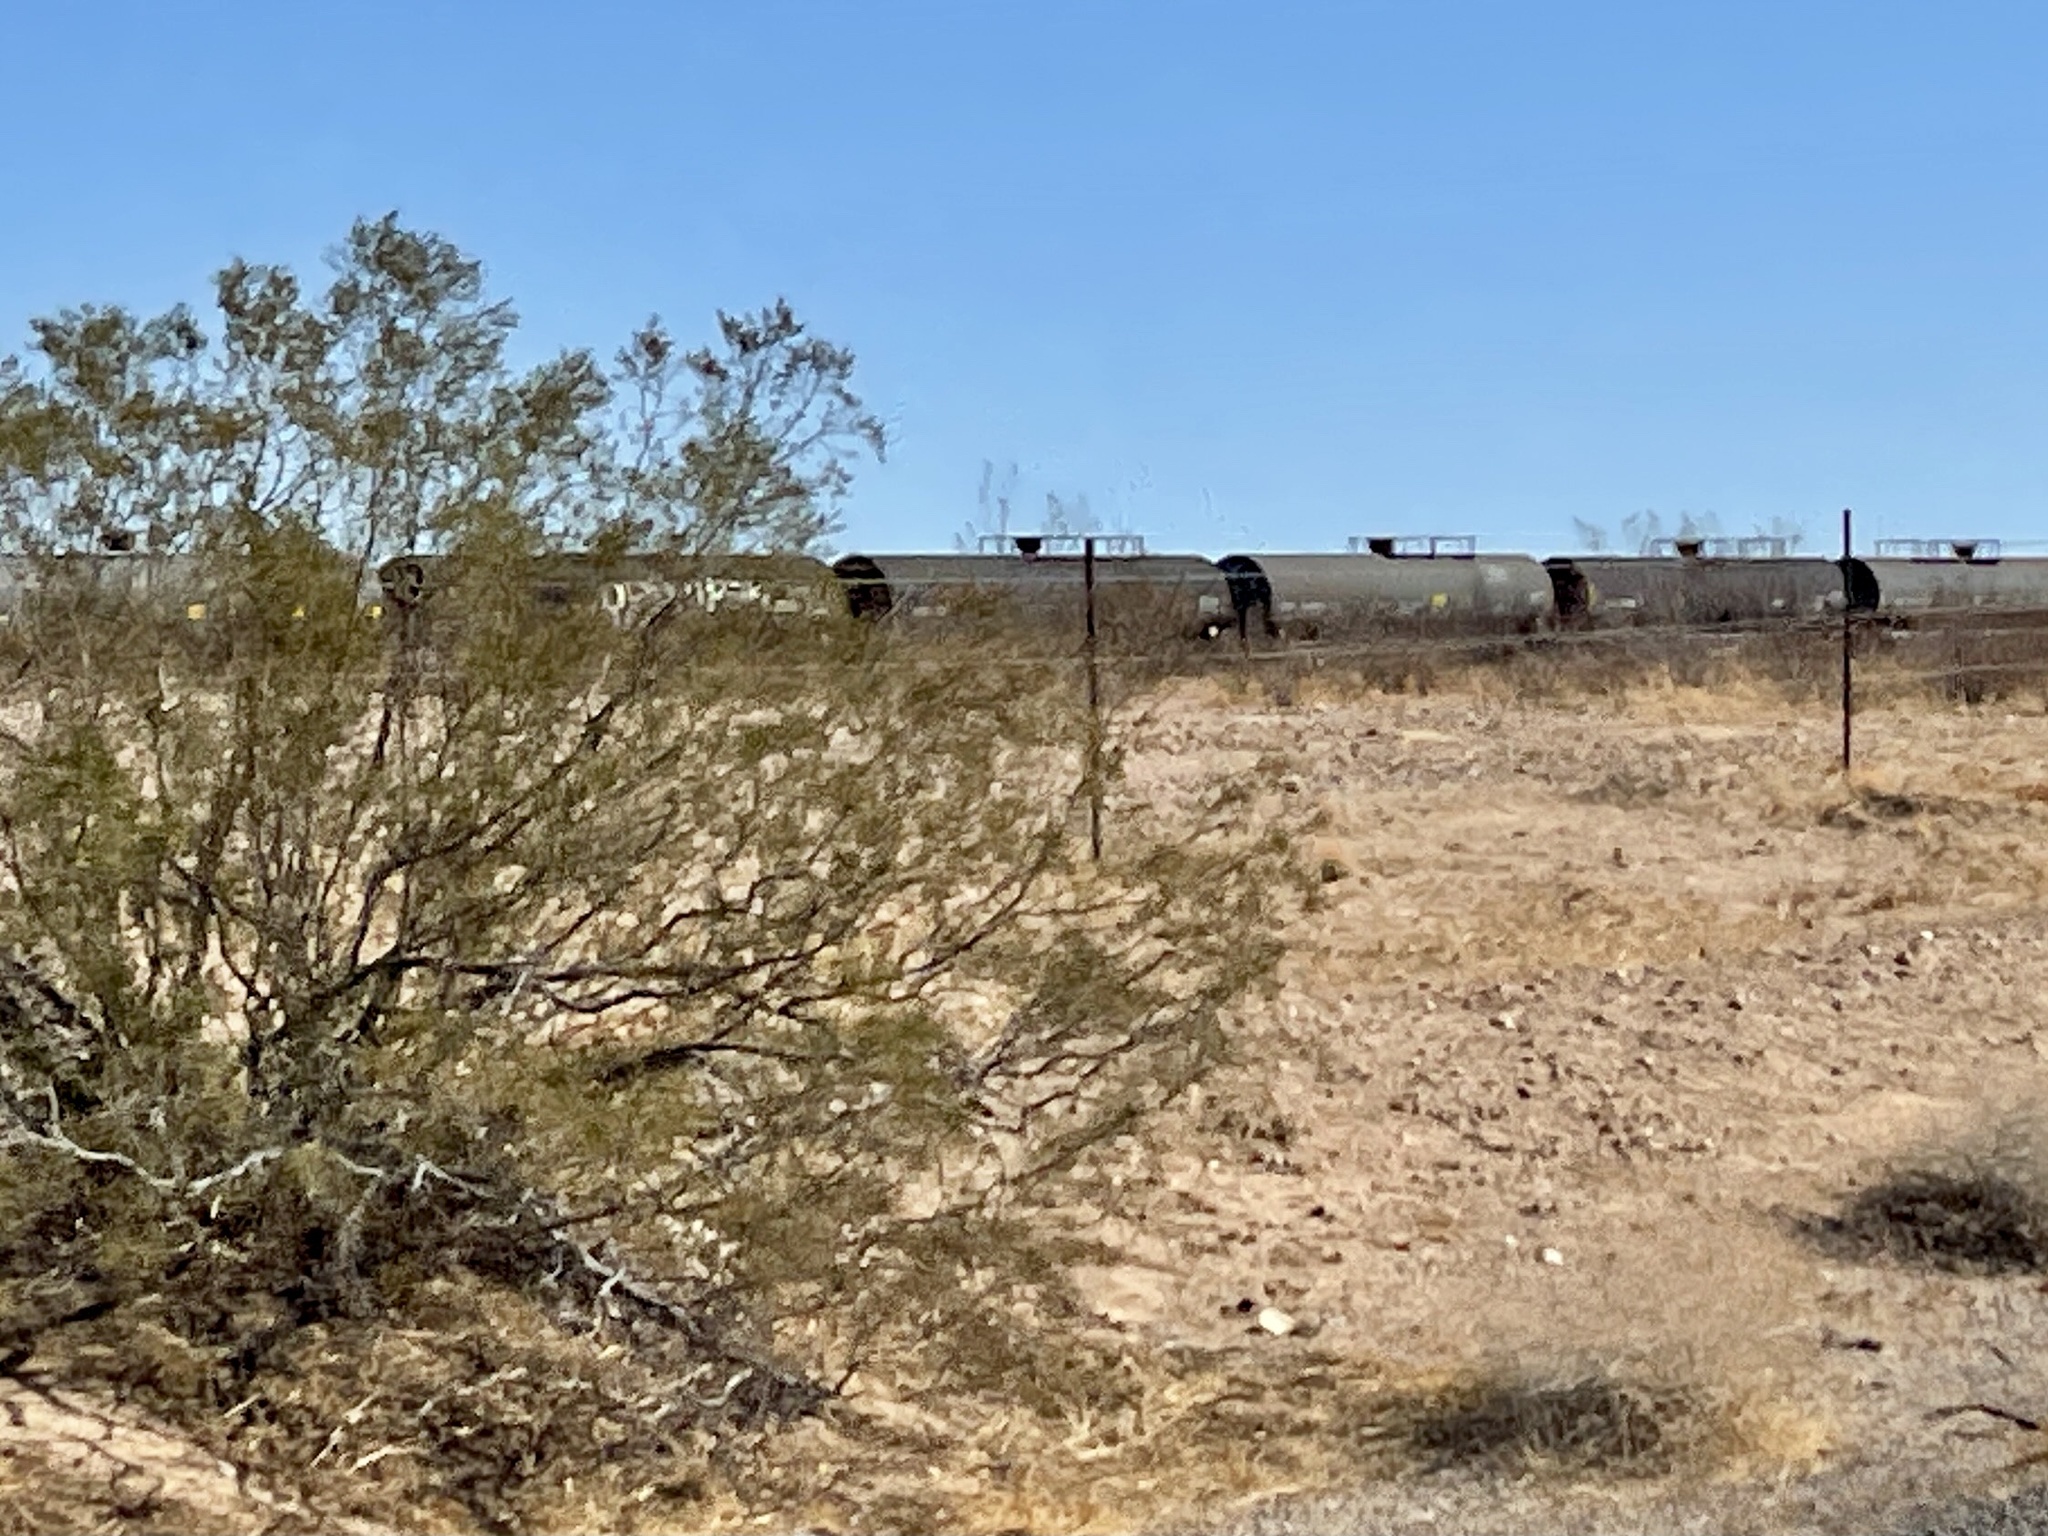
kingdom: Plantae
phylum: Tracheophyta
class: Magnoliopsida
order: Zygophyllales
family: Zygophyllaceae
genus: Larrea
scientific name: Larrea tridentata
